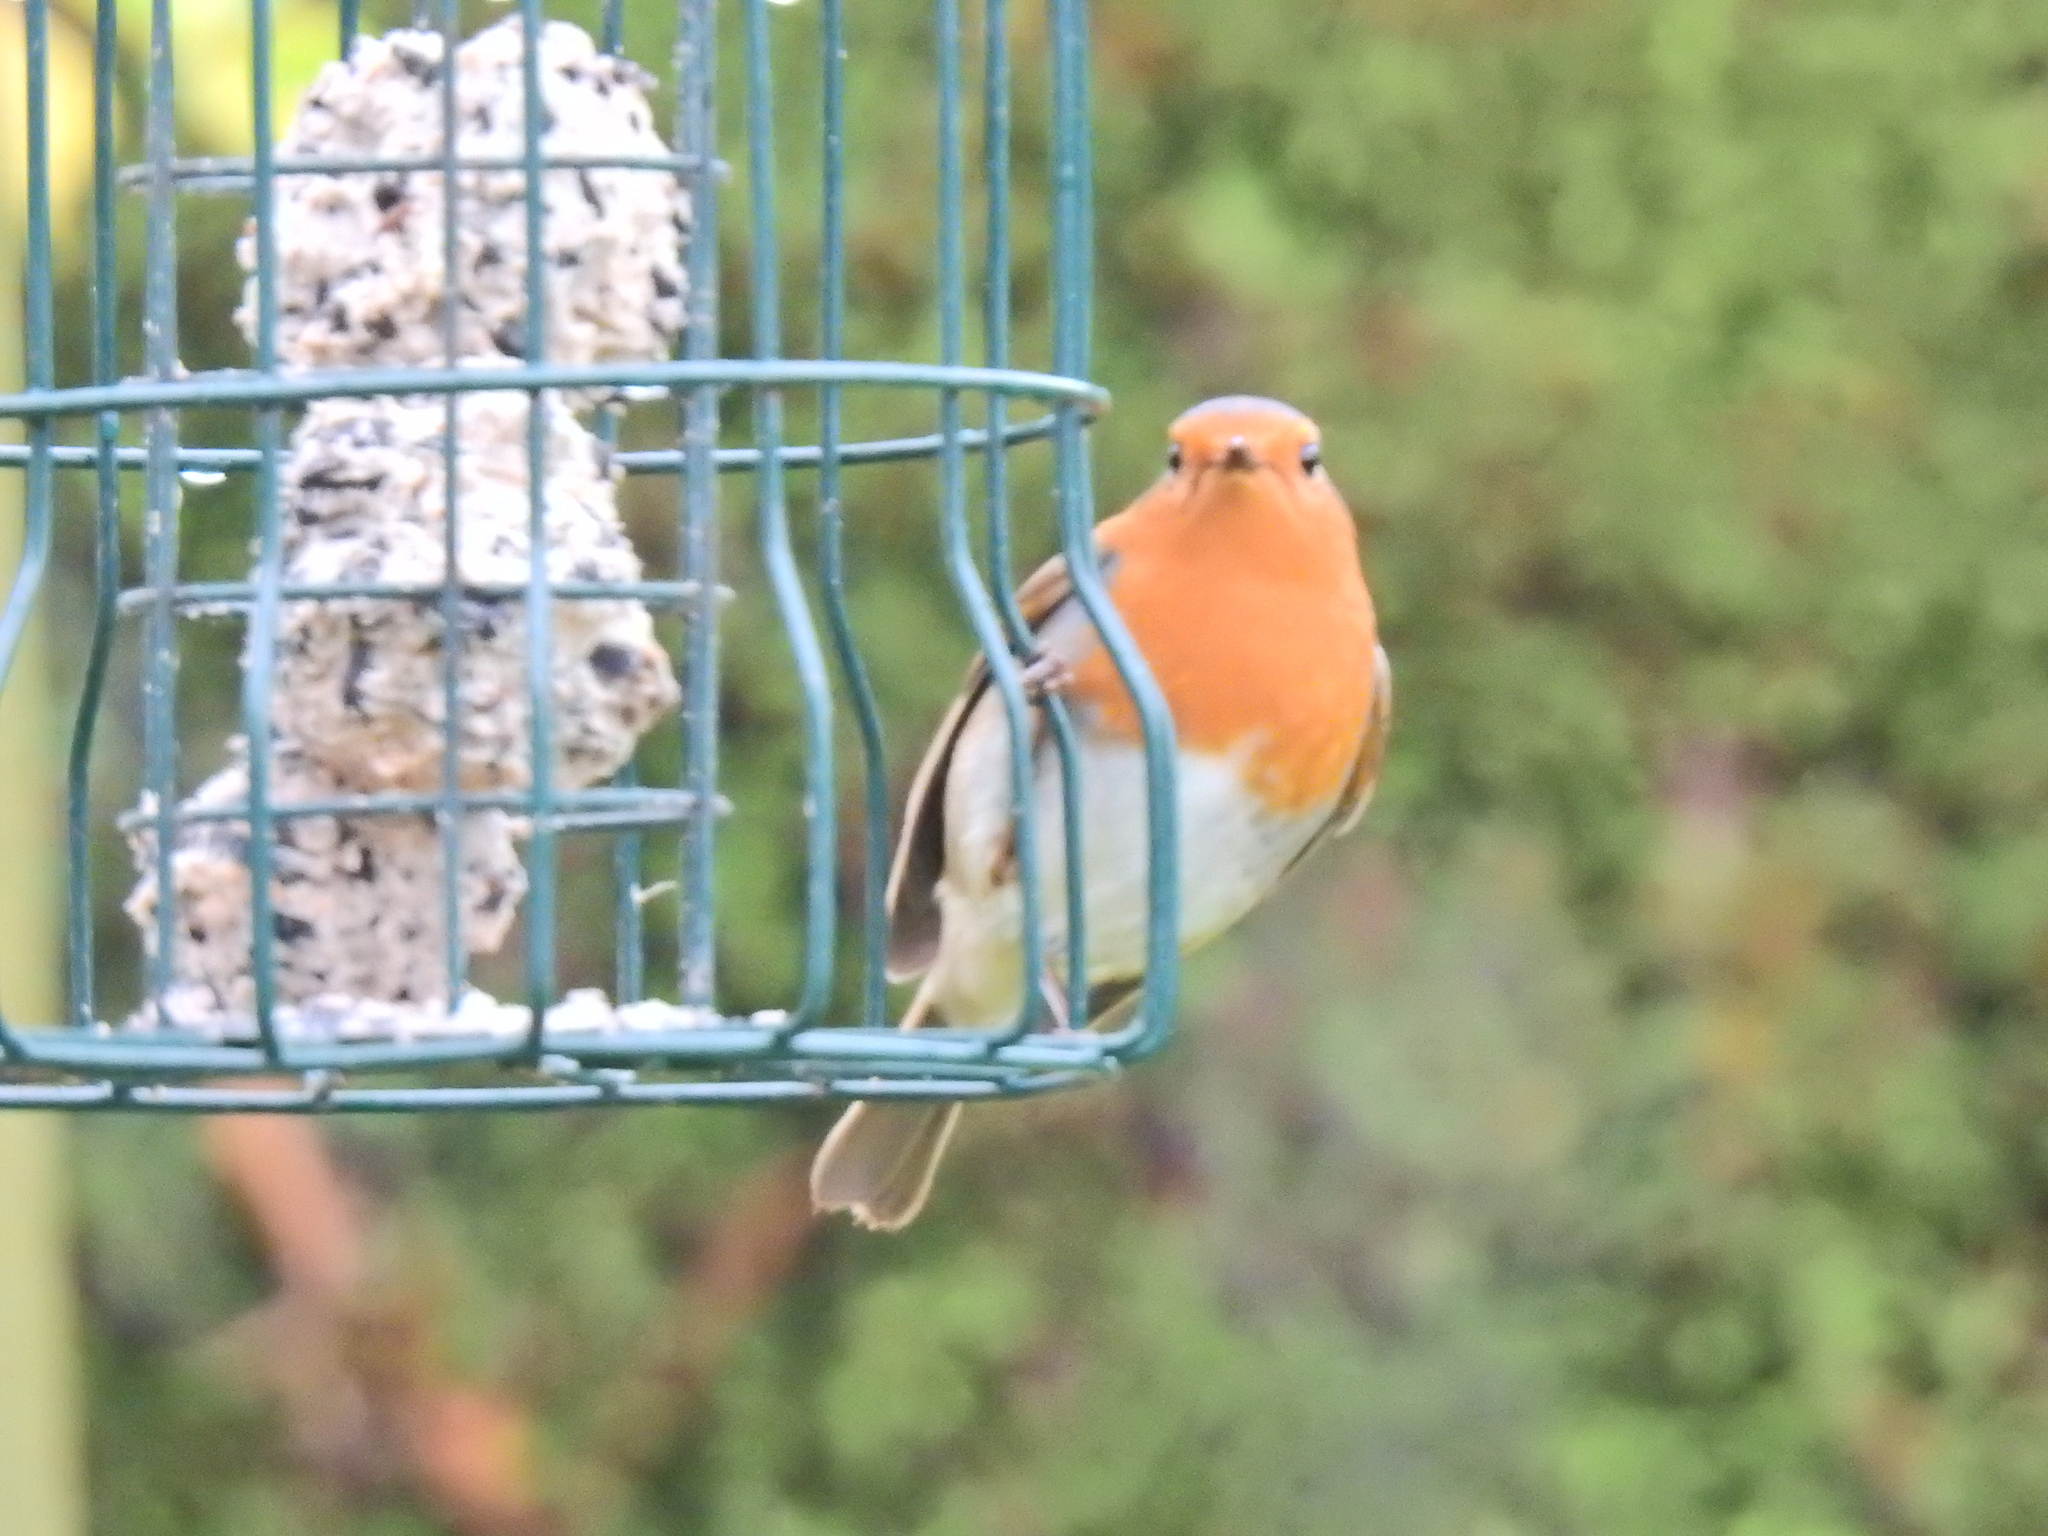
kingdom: Animalia
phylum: Chordata
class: Aves
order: Passeriformes
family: Muscicapidae
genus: Erithacus
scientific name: Erithacus rubecula
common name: European robin
